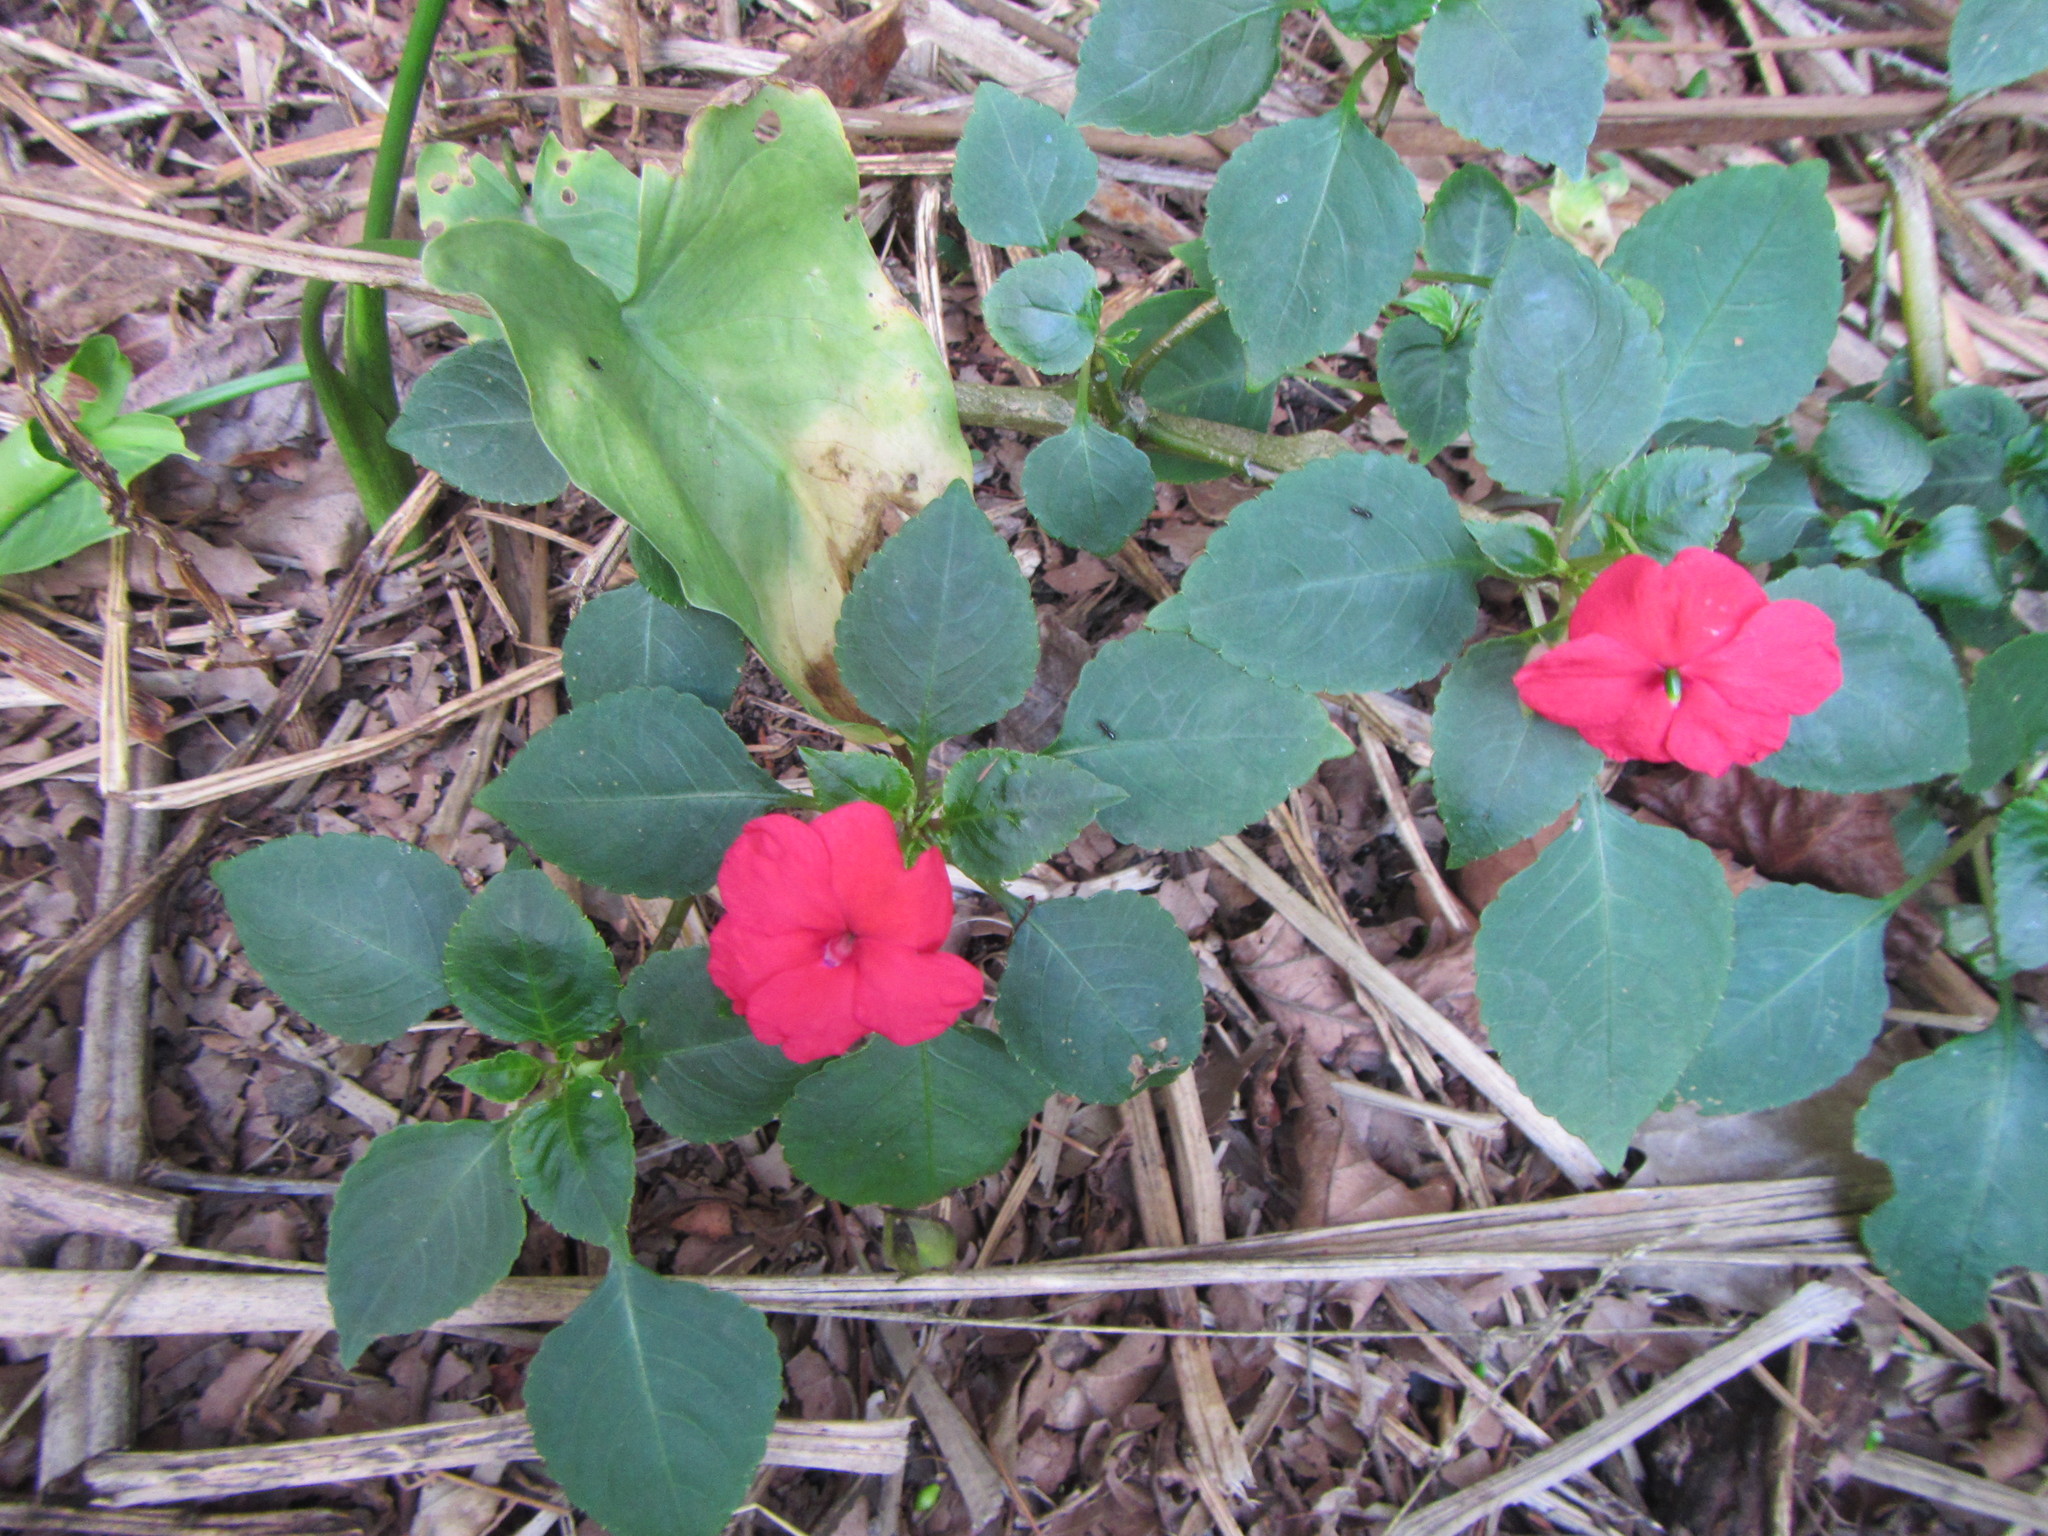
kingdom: Plantae
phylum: Tracheophyta
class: Magnoliopsida
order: Ericales
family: Balsaminaceae
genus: Impatiens
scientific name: Impatiens walleriana
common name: Buzzy lizzy
